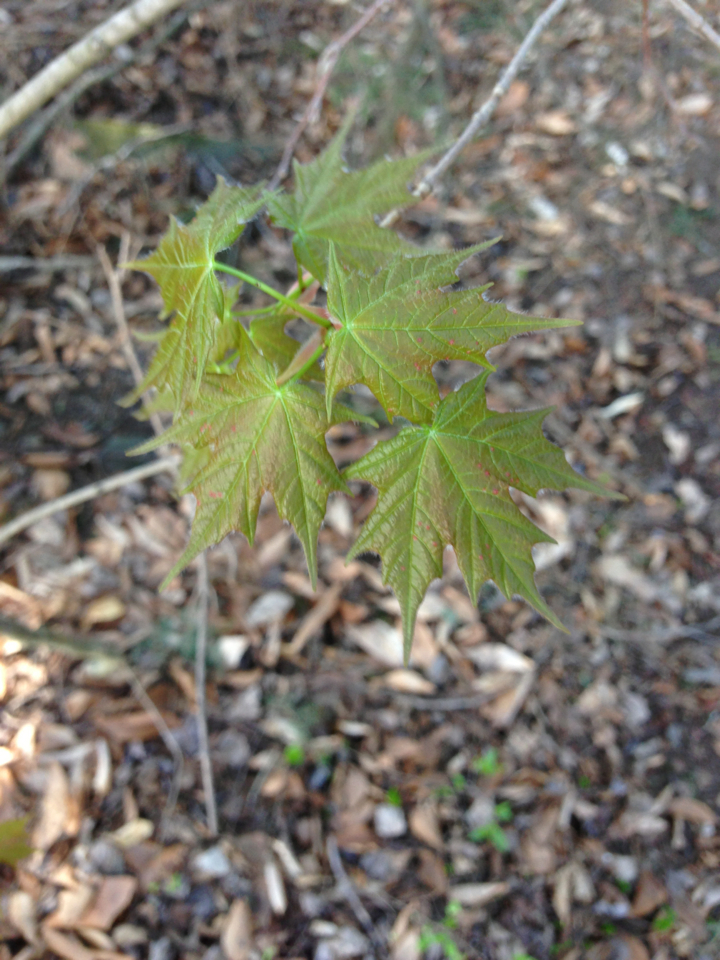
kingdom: Plantae
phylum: Tracheophyta
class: Magnoliopsida
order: Sapindales
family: Sapindaceae
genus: Acer
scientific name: Acer saccharum
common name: Sugar maple
